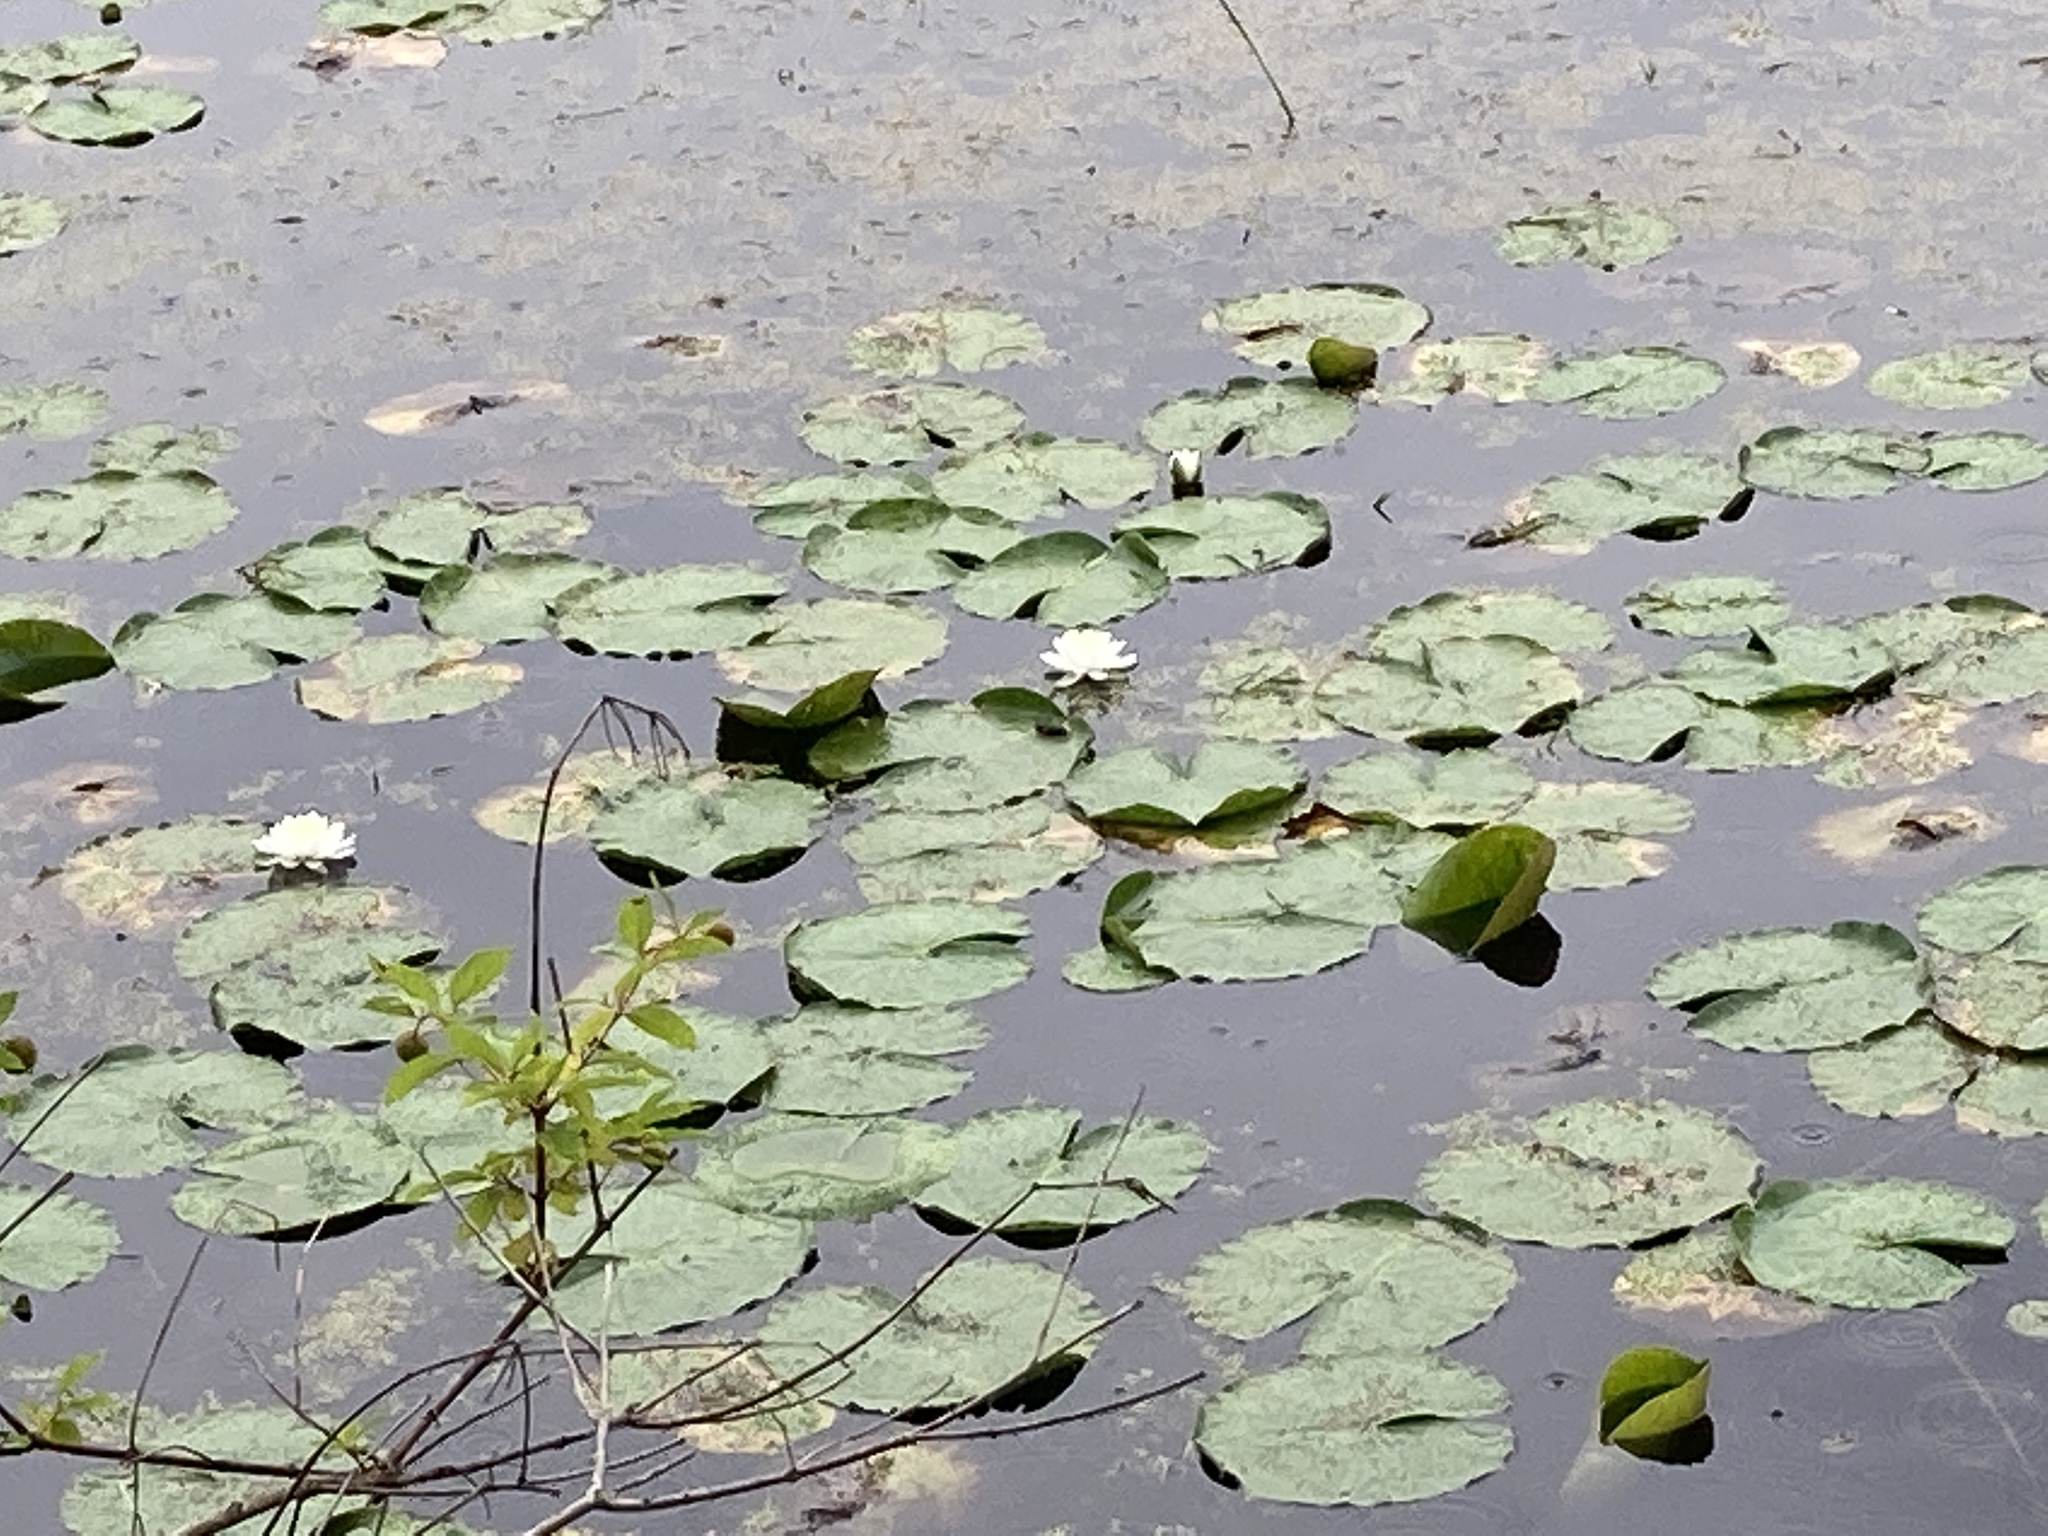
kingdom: Plantae
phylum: Tracheophyta
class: Magnoliopsida
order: Nymphaeales
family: Nymphaeaceae
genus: Nymphaea
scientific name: Nymphaea odorata
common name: Fragrant water-lily
